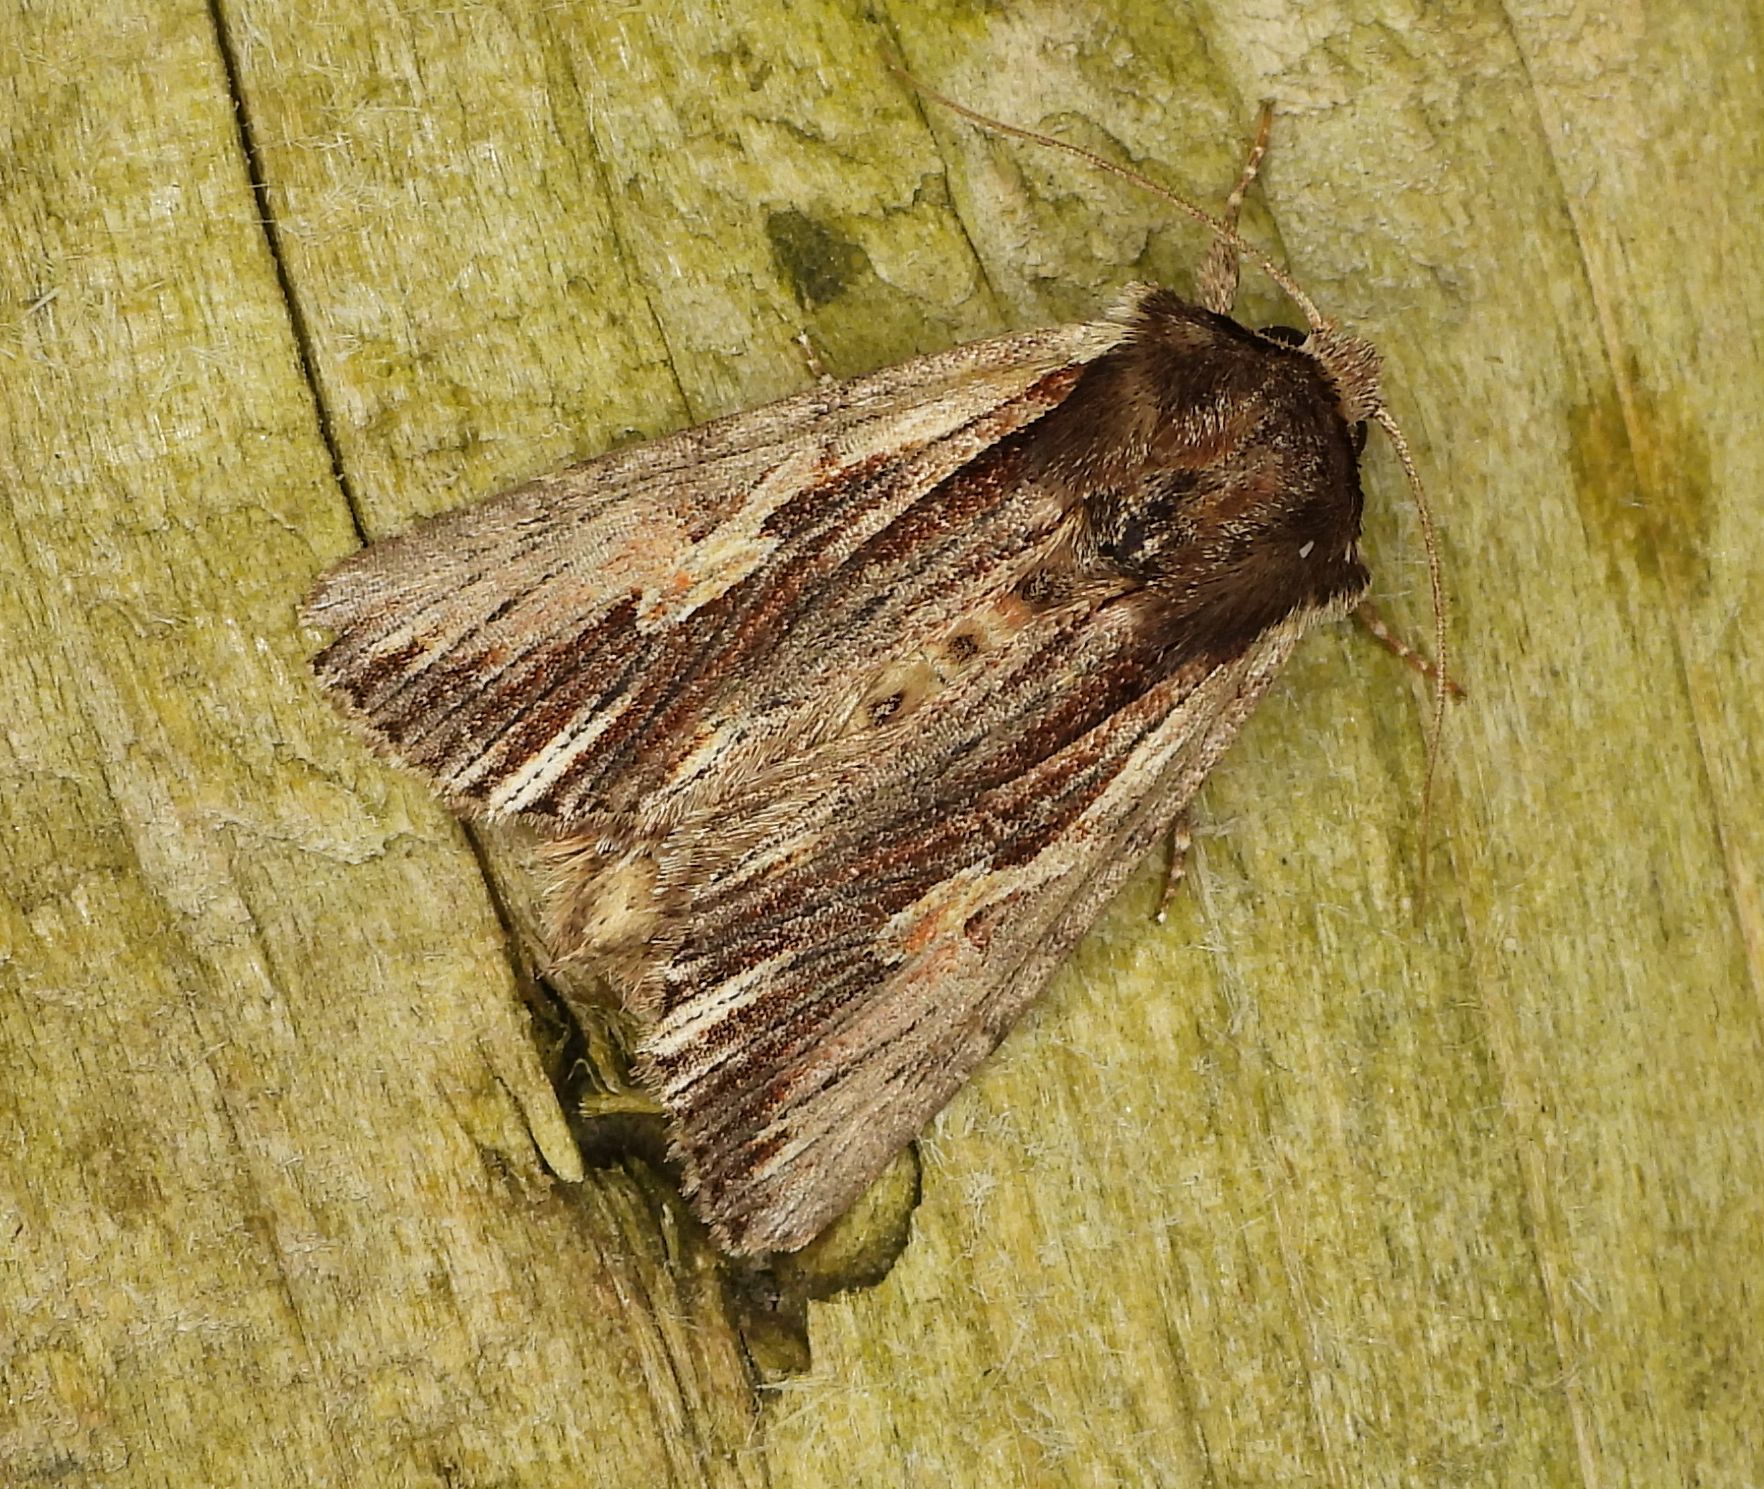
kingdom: Animalia
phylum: Arthropoda
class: Insecta
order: Lepidoptera
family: Noctuidae
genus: Achatia
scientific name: Achatia evicta
